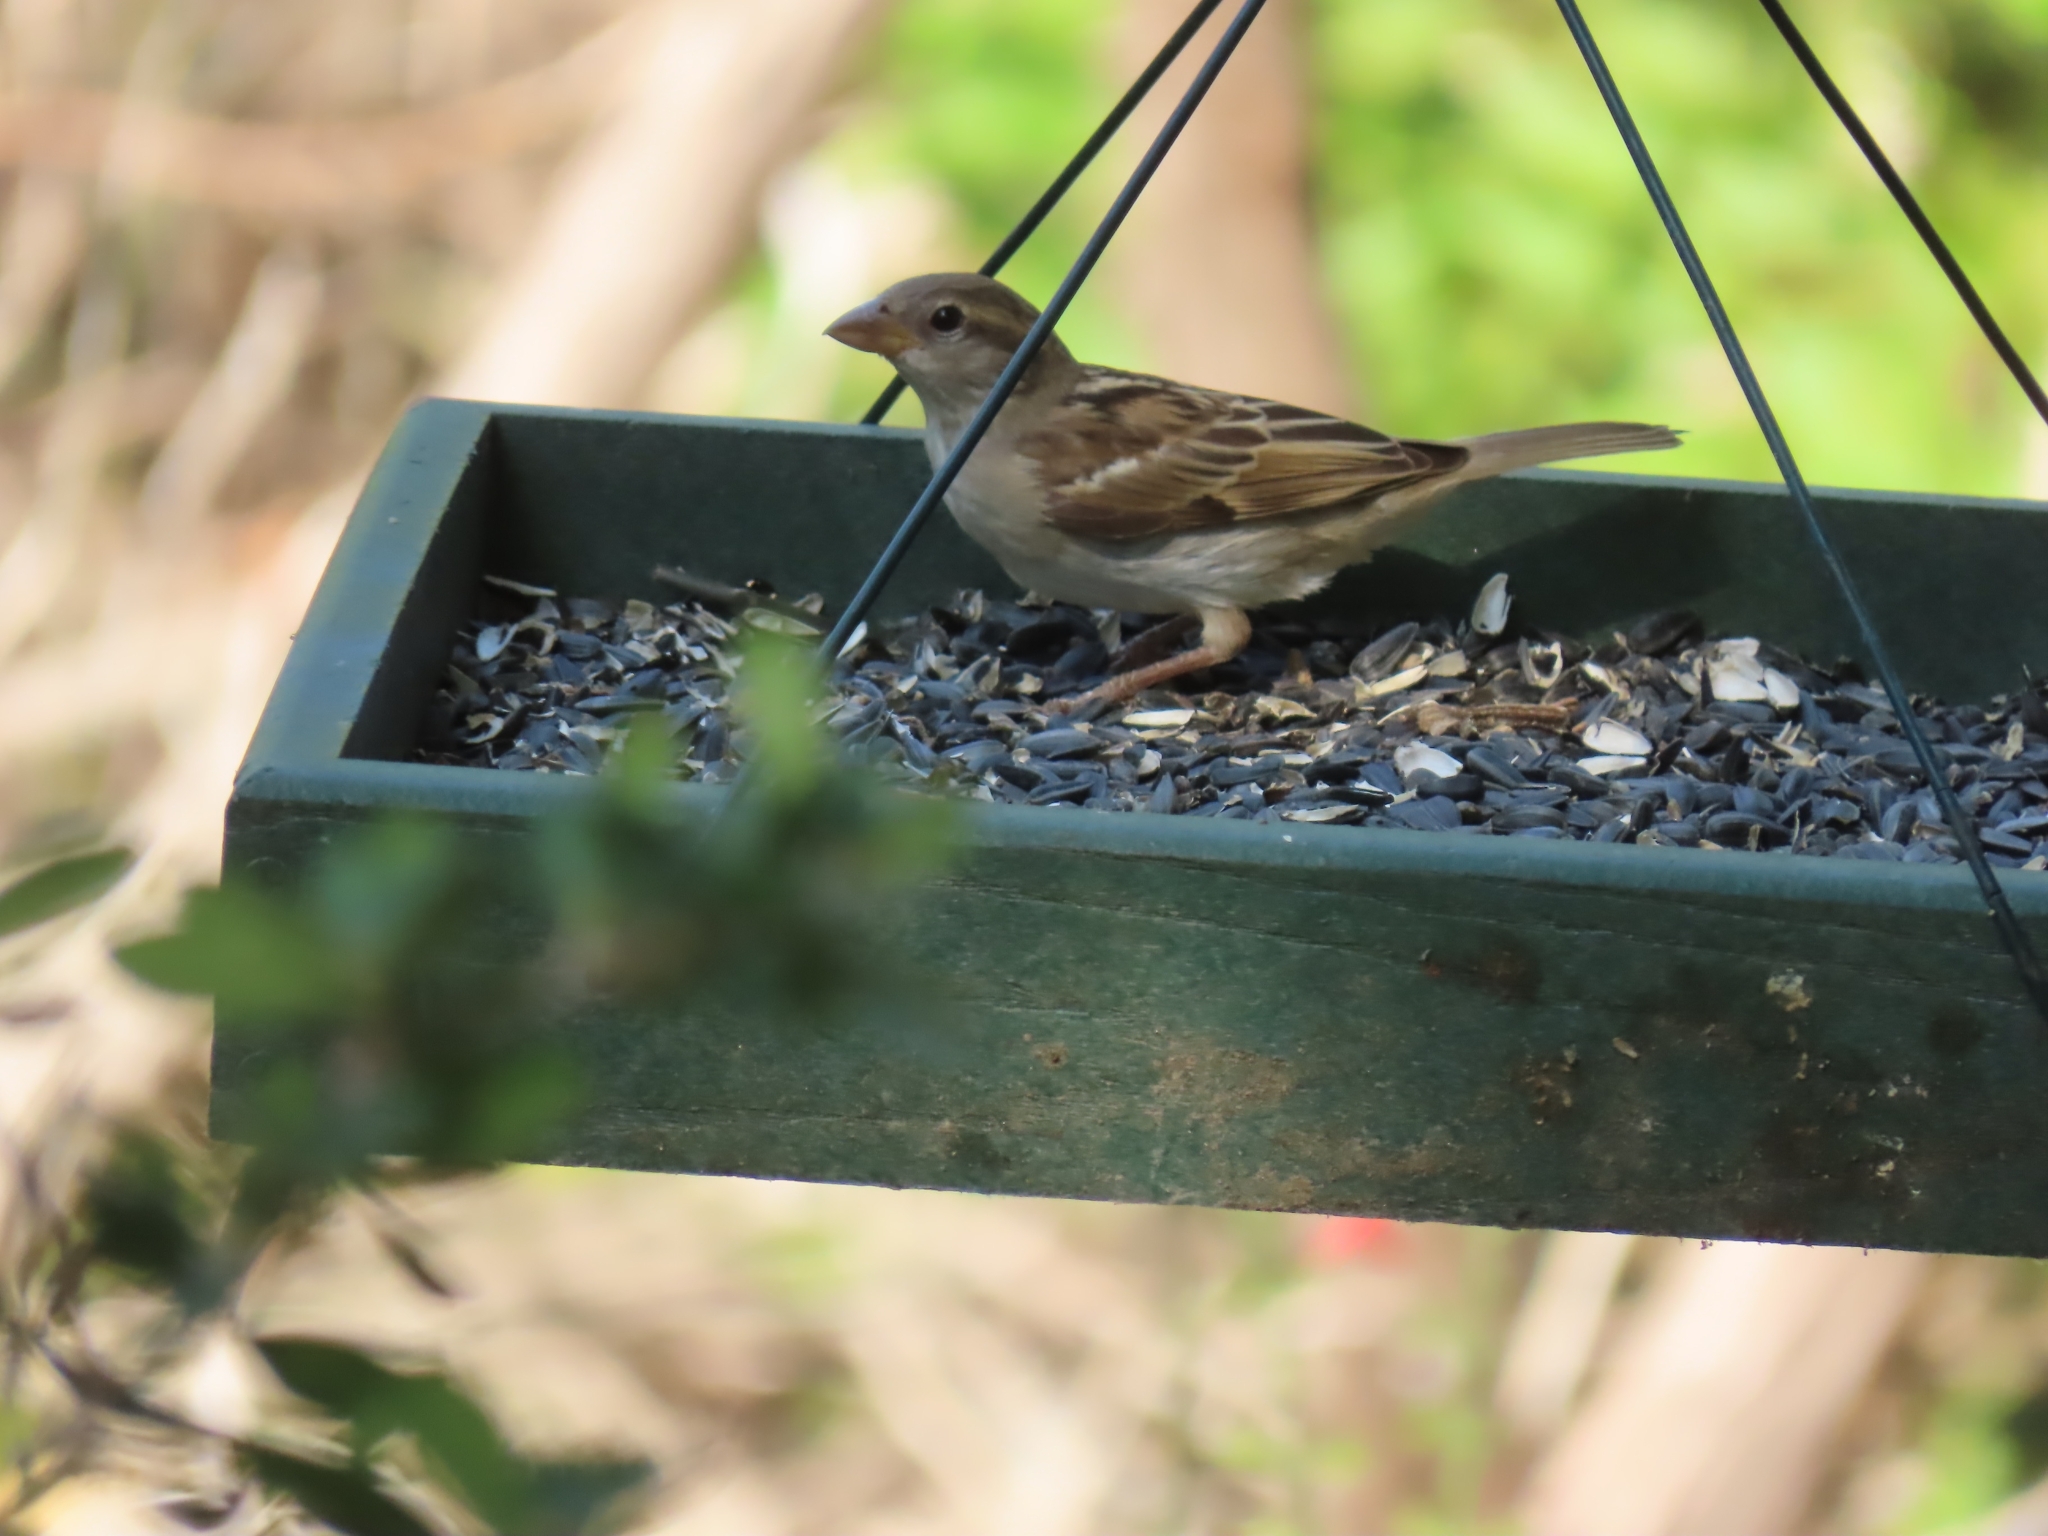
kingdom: Animalia
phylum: Chordata
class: Aves
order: Passeriformes
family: Passeridae
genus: Passer
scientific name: Passer domesticus
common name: House sparrow
